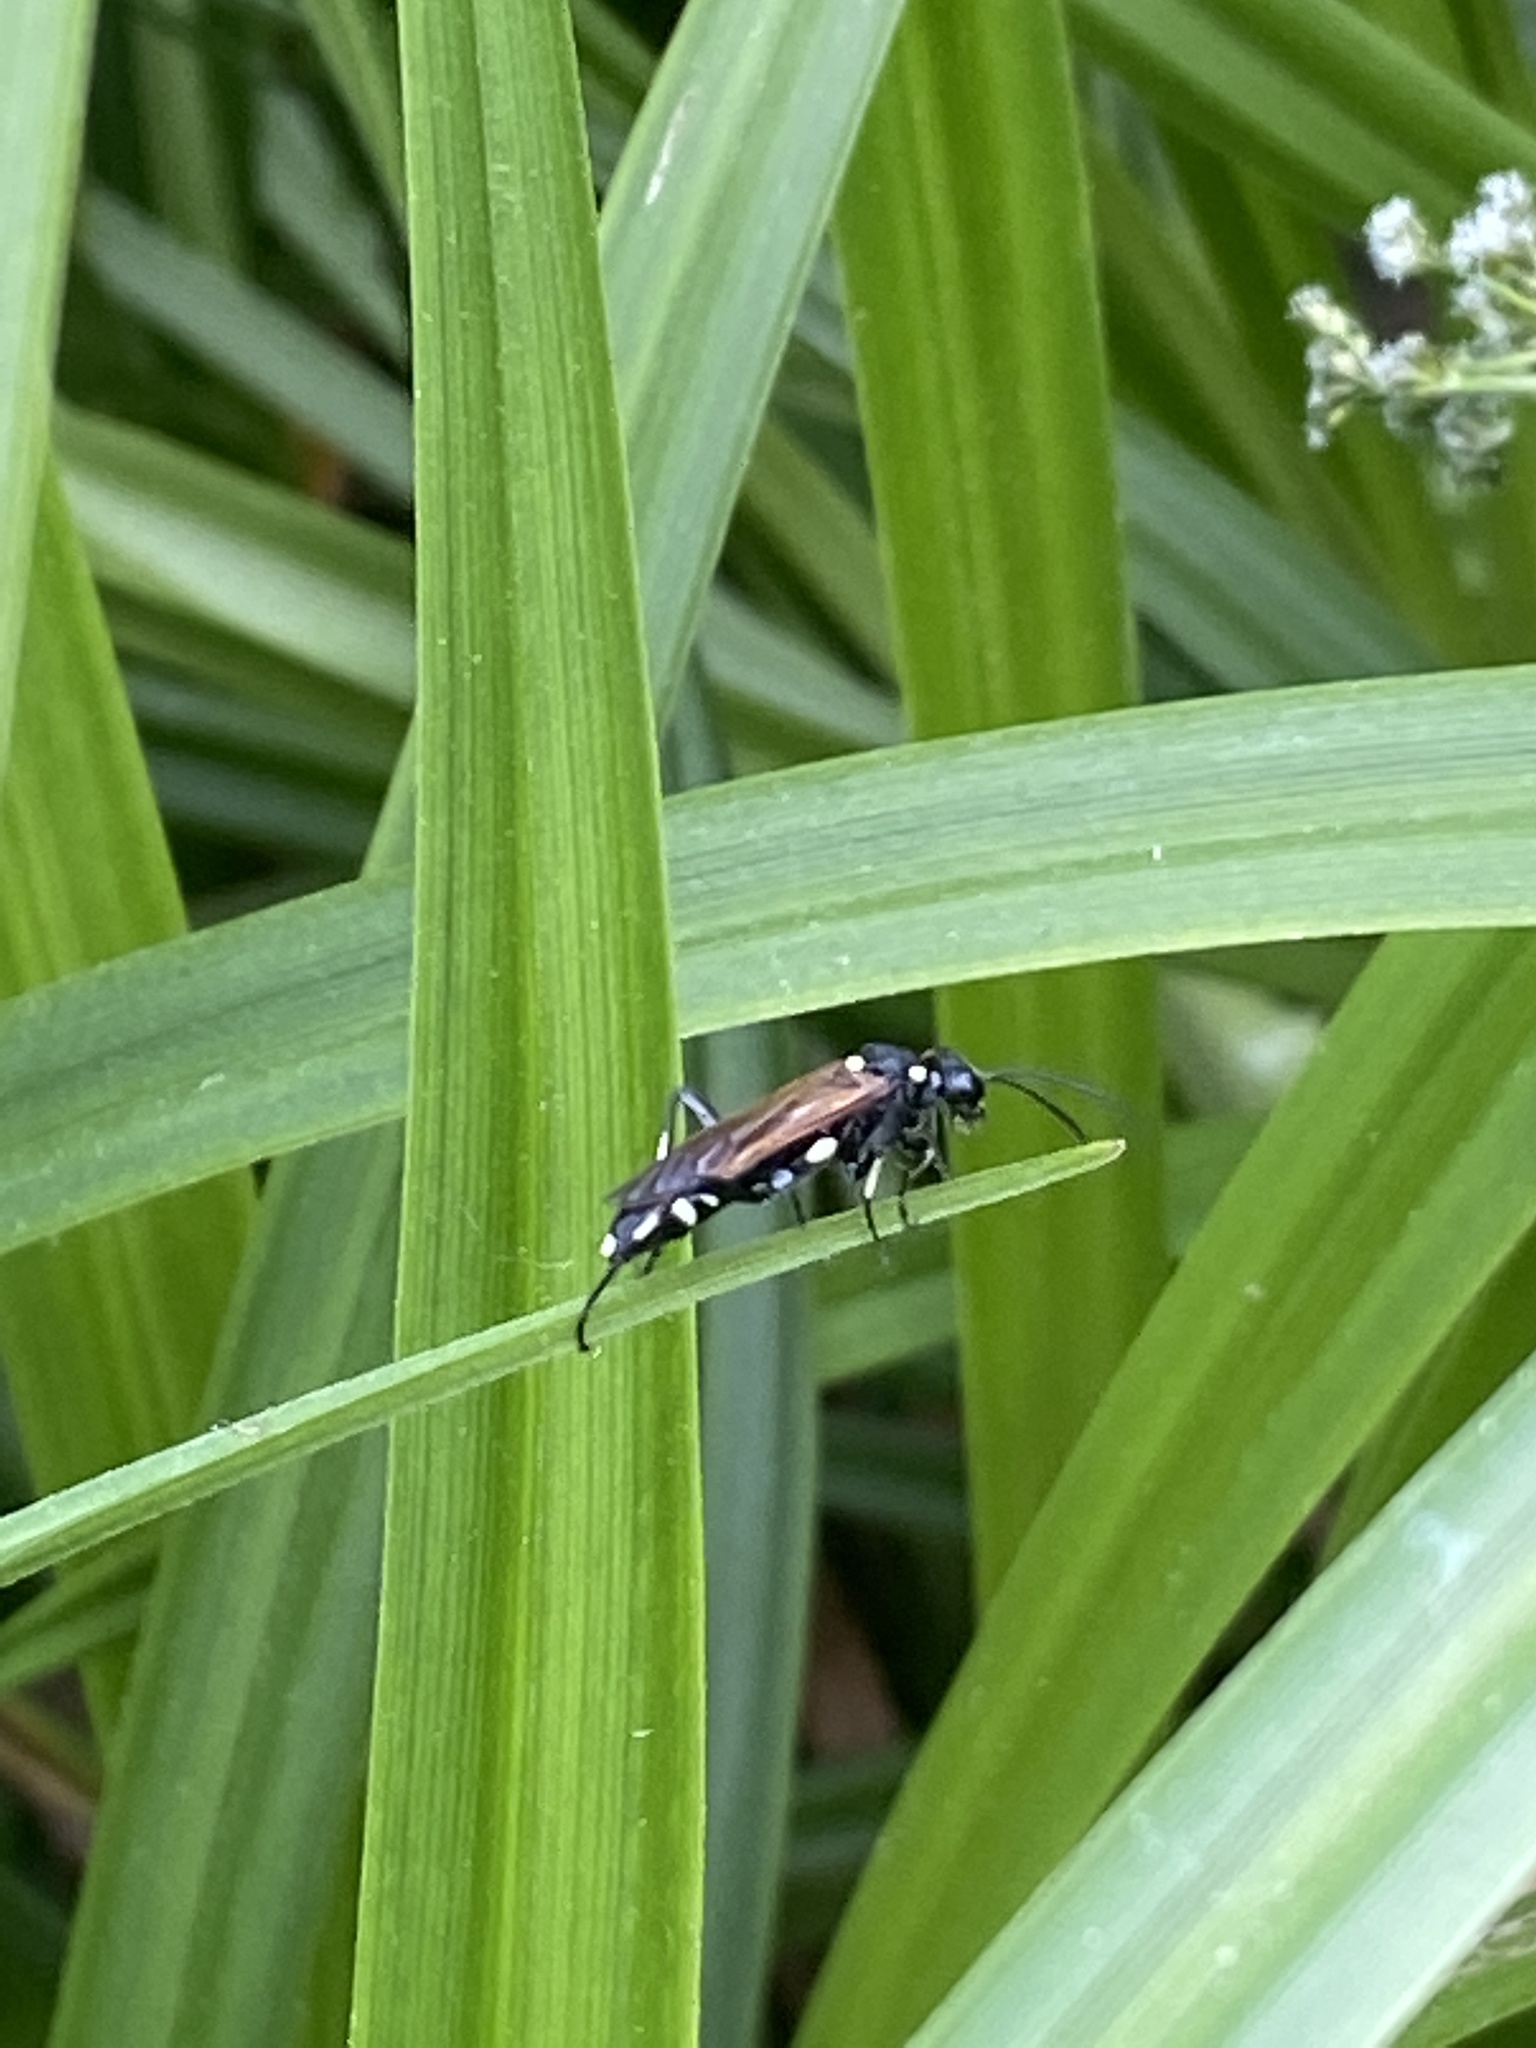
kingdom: Animalia
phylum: Arthropoda
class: Insecta
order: Hymenoptera
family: Tenthredinidae
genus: Macrophya
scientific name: Macrophya duodecimpunctata
